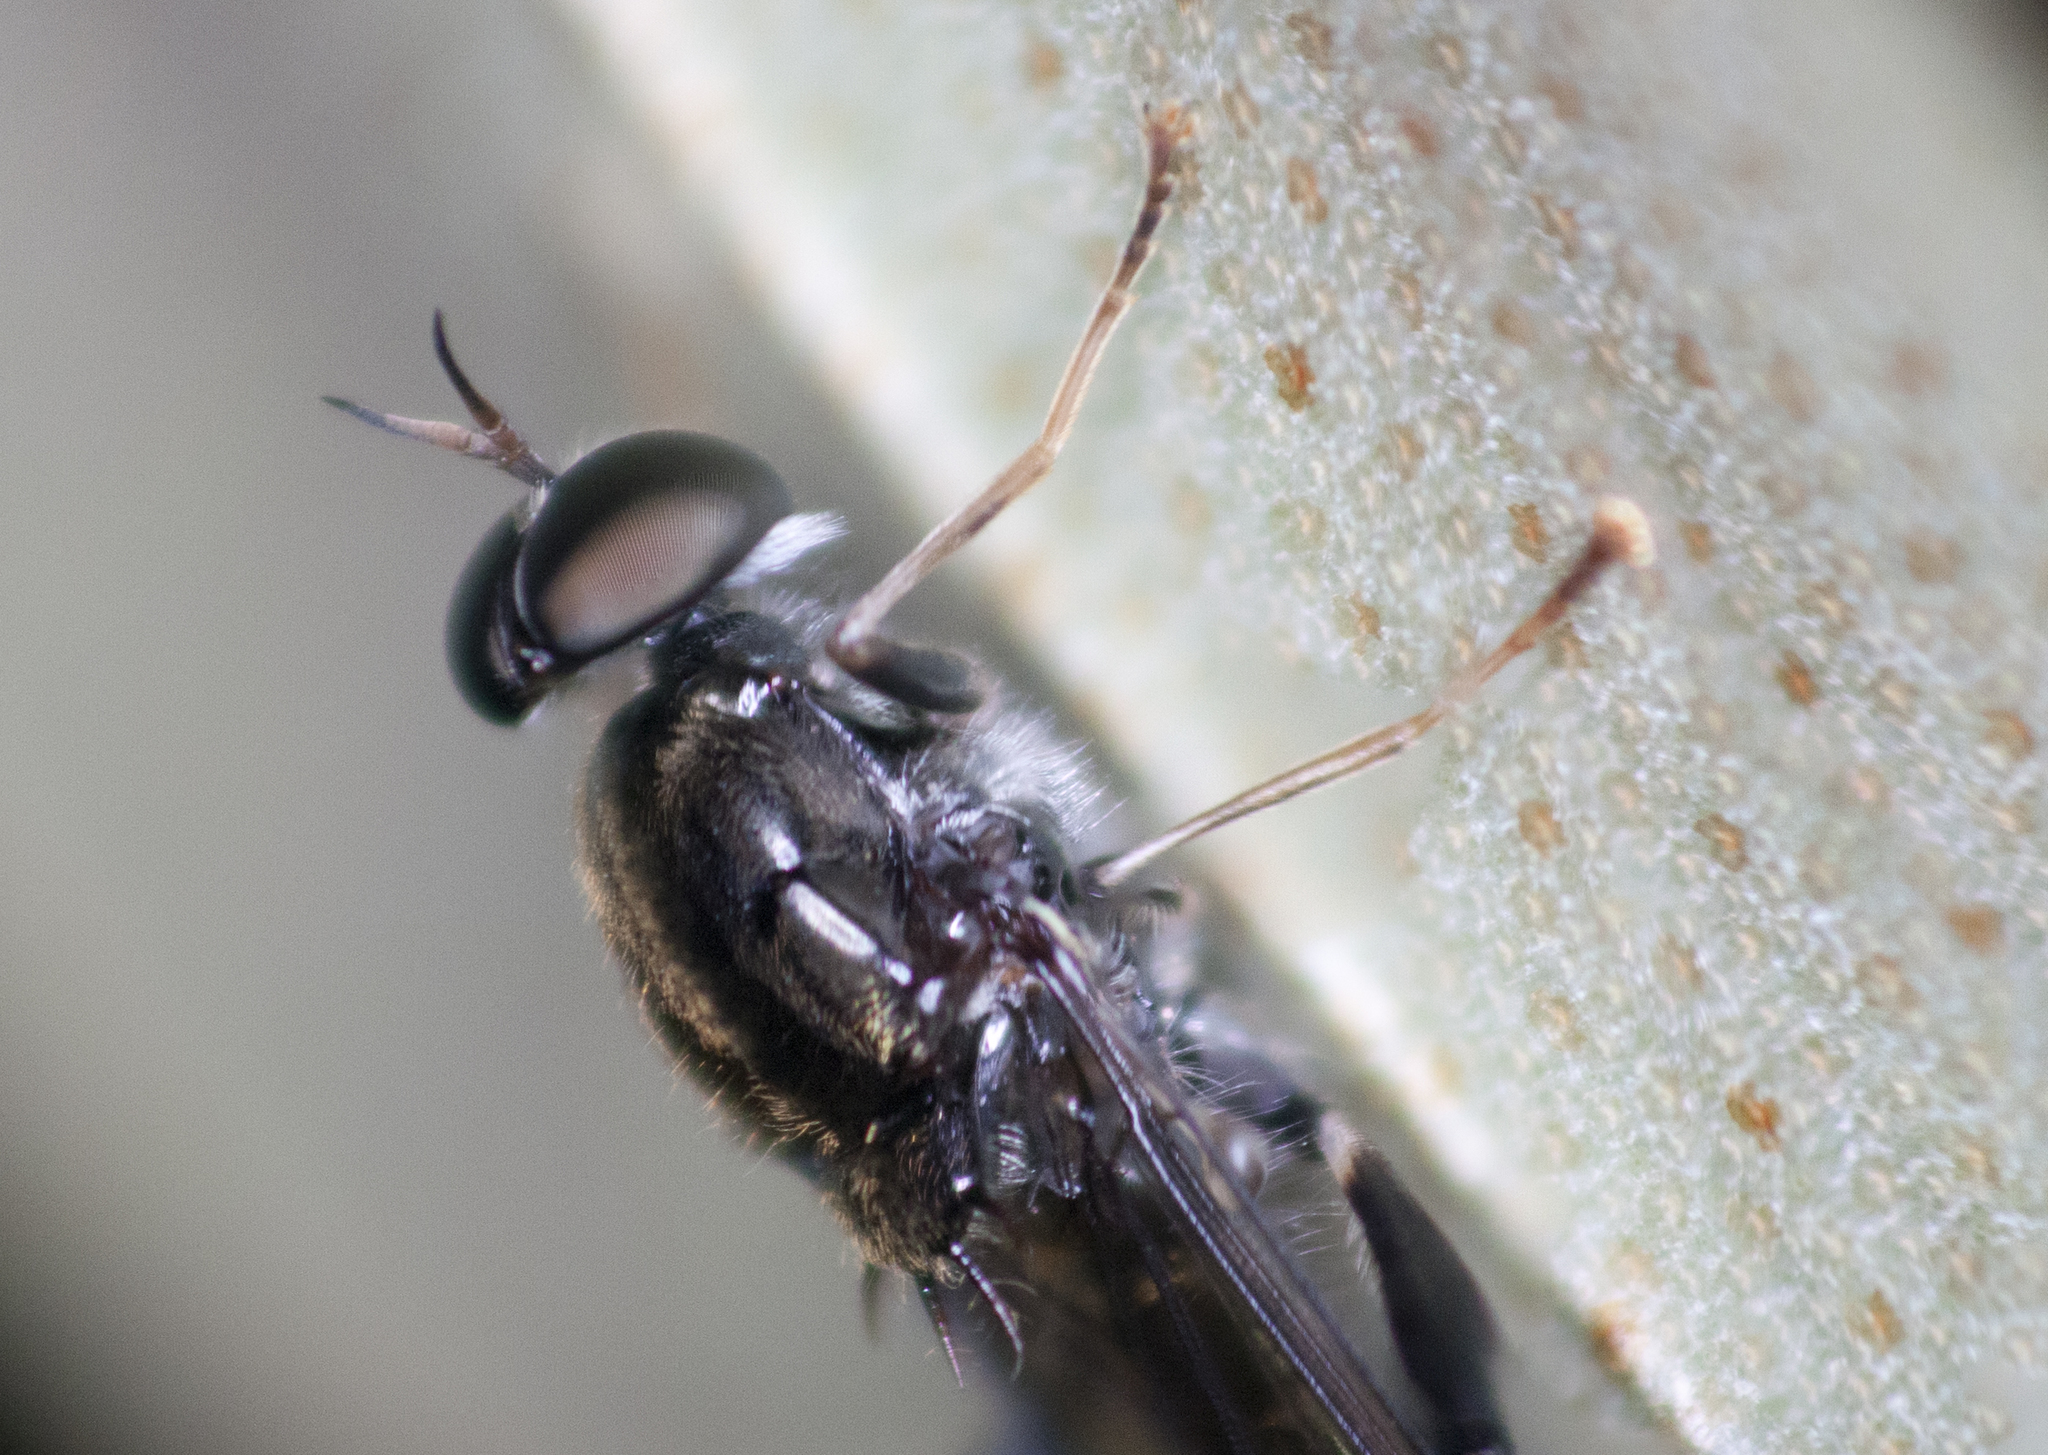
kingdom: Animalia
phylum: Arthropoda
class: Insecta
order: Diptera
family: Stratiomyidae
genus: Exaireta
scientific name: Exaireta spinigera
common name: Blue soldier fly
